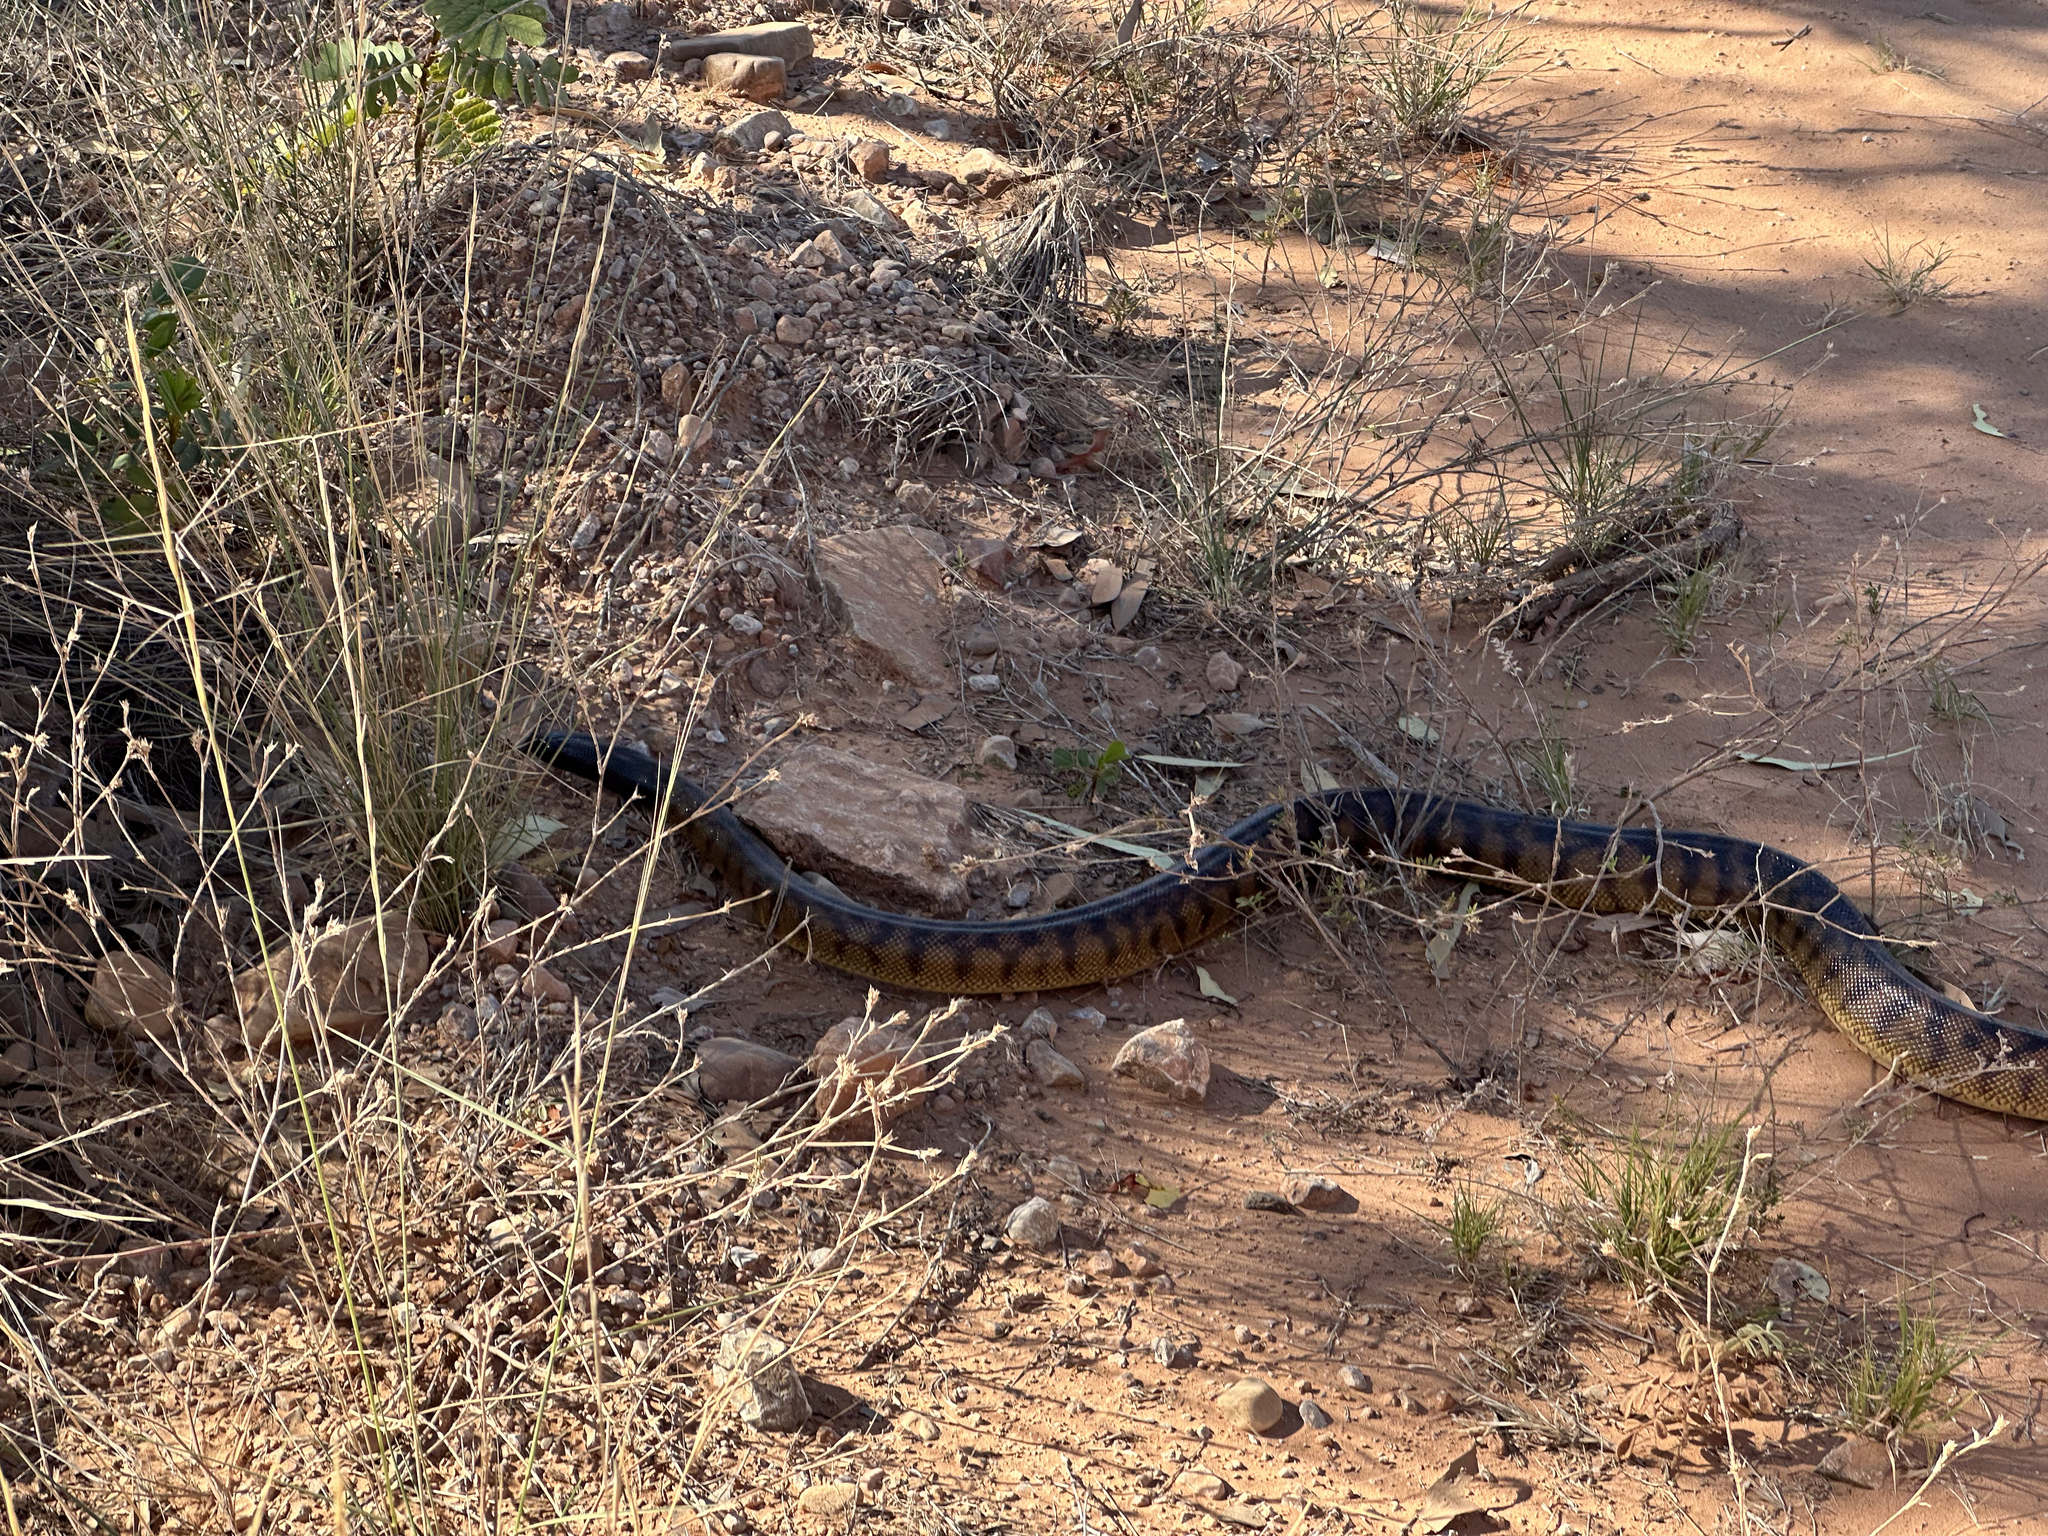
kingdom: Animalia
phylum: Chordata
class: Squamata
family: Pythonidae
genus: Aspidites
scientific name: Aspidites melanocephalus
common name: Black-headed python
